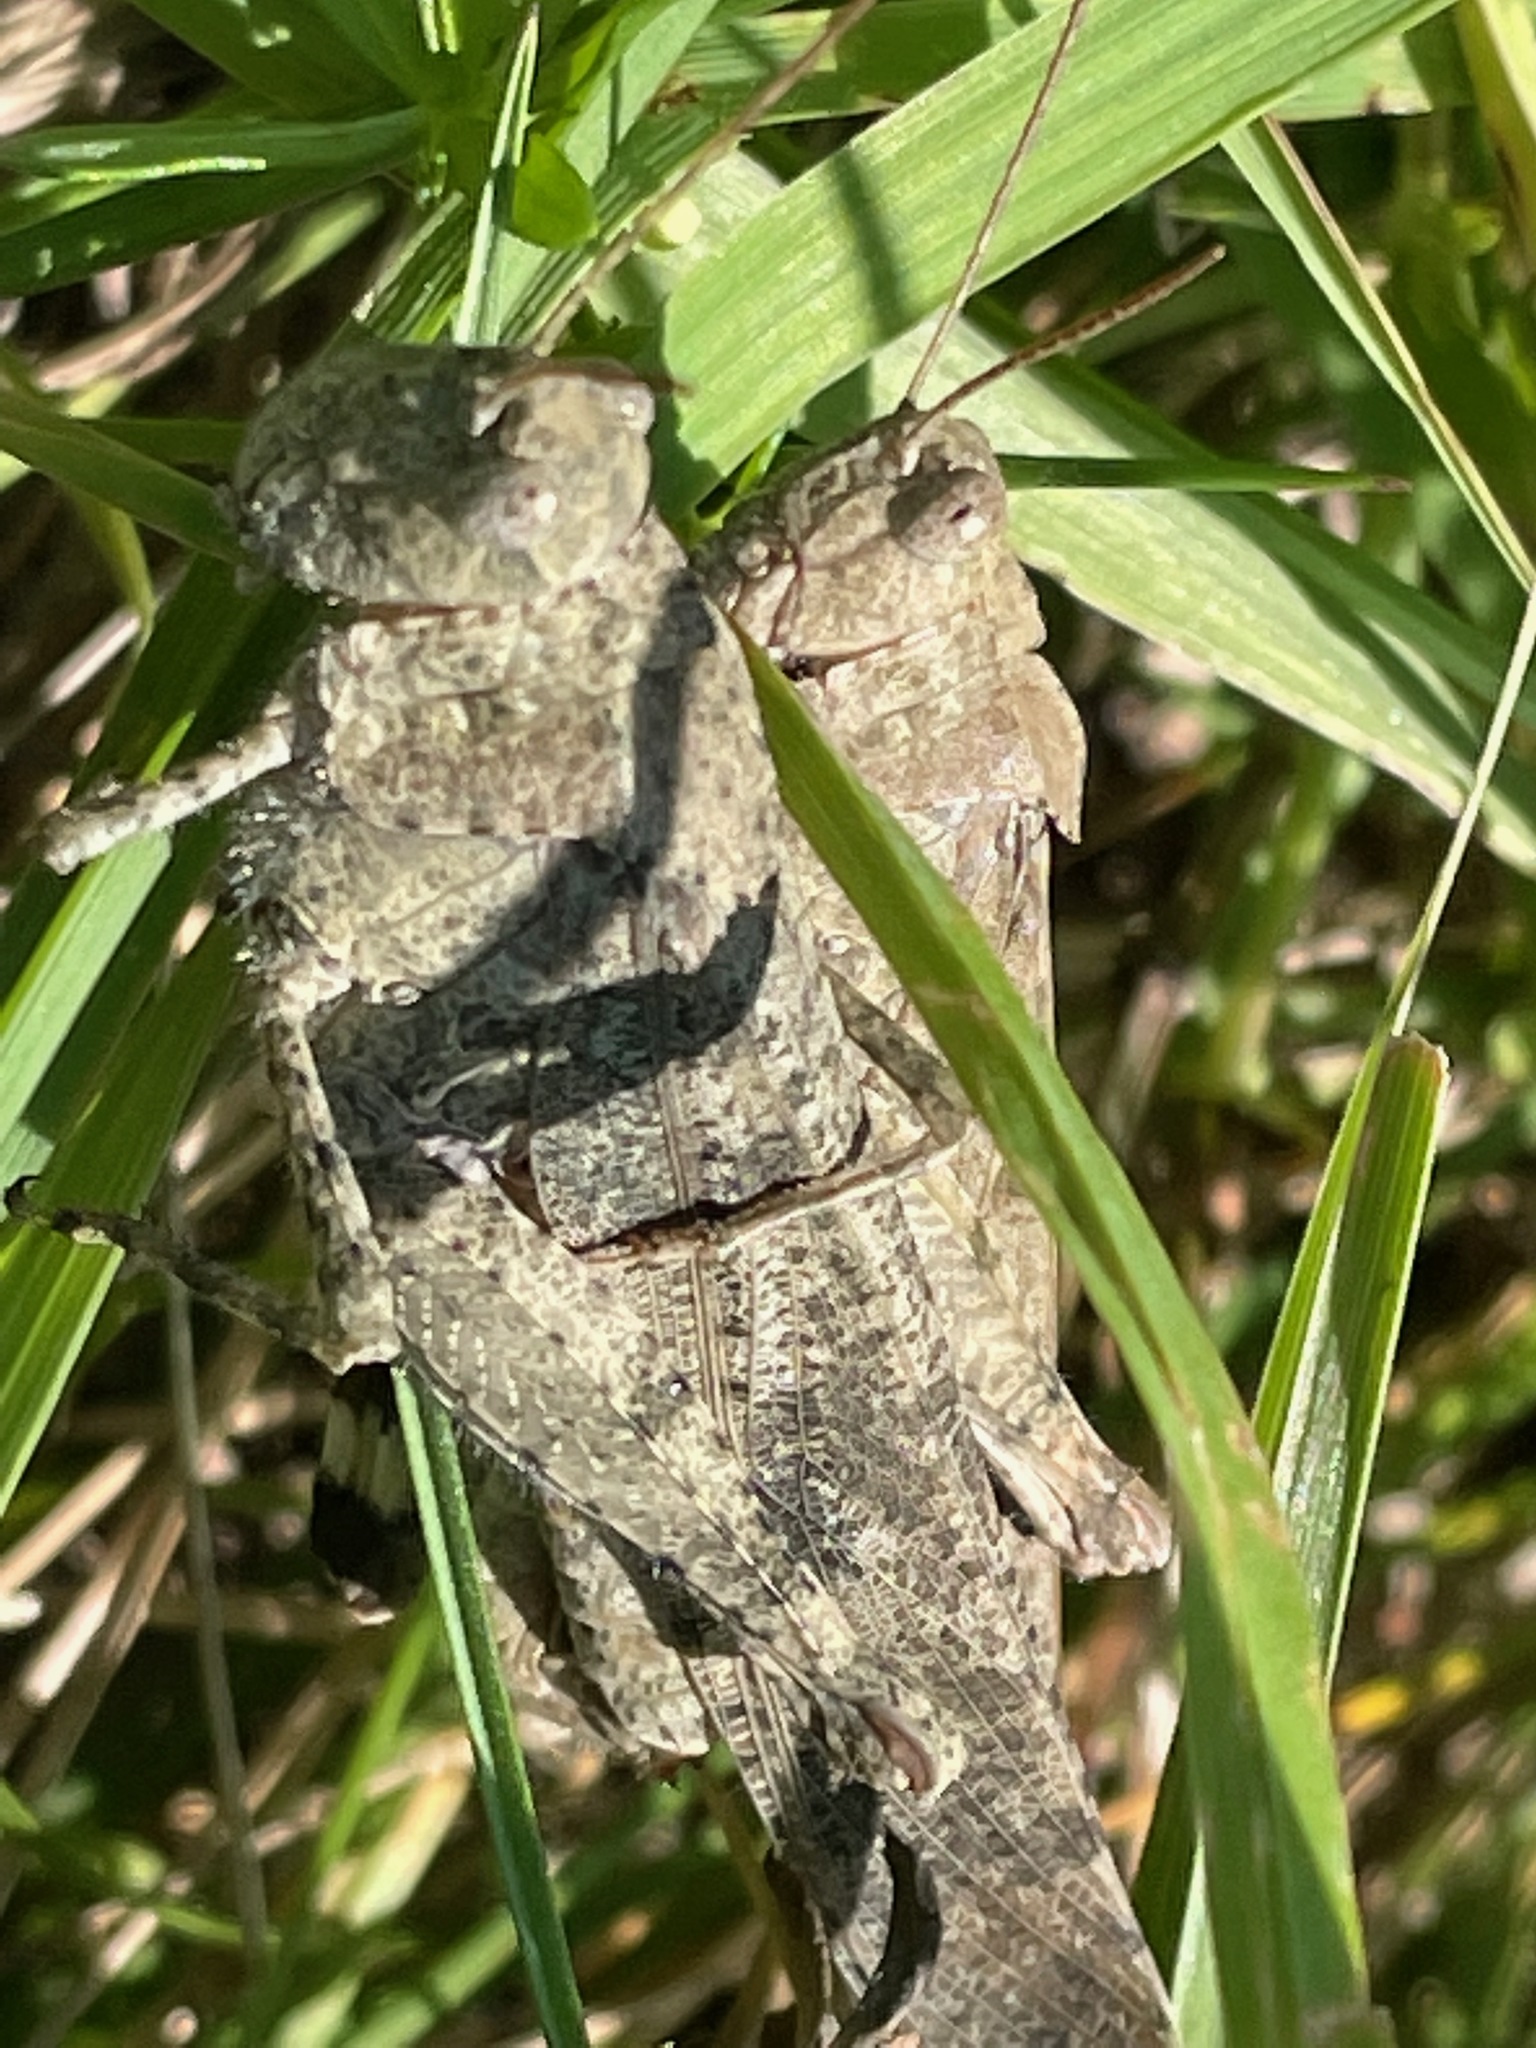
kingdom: Animalia
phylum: Arthropoda
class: Insecta
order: Orthoptera
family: Acrididae
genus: Dissosteira
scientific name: Dissosteira carolina
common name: Carolina grasshopper
